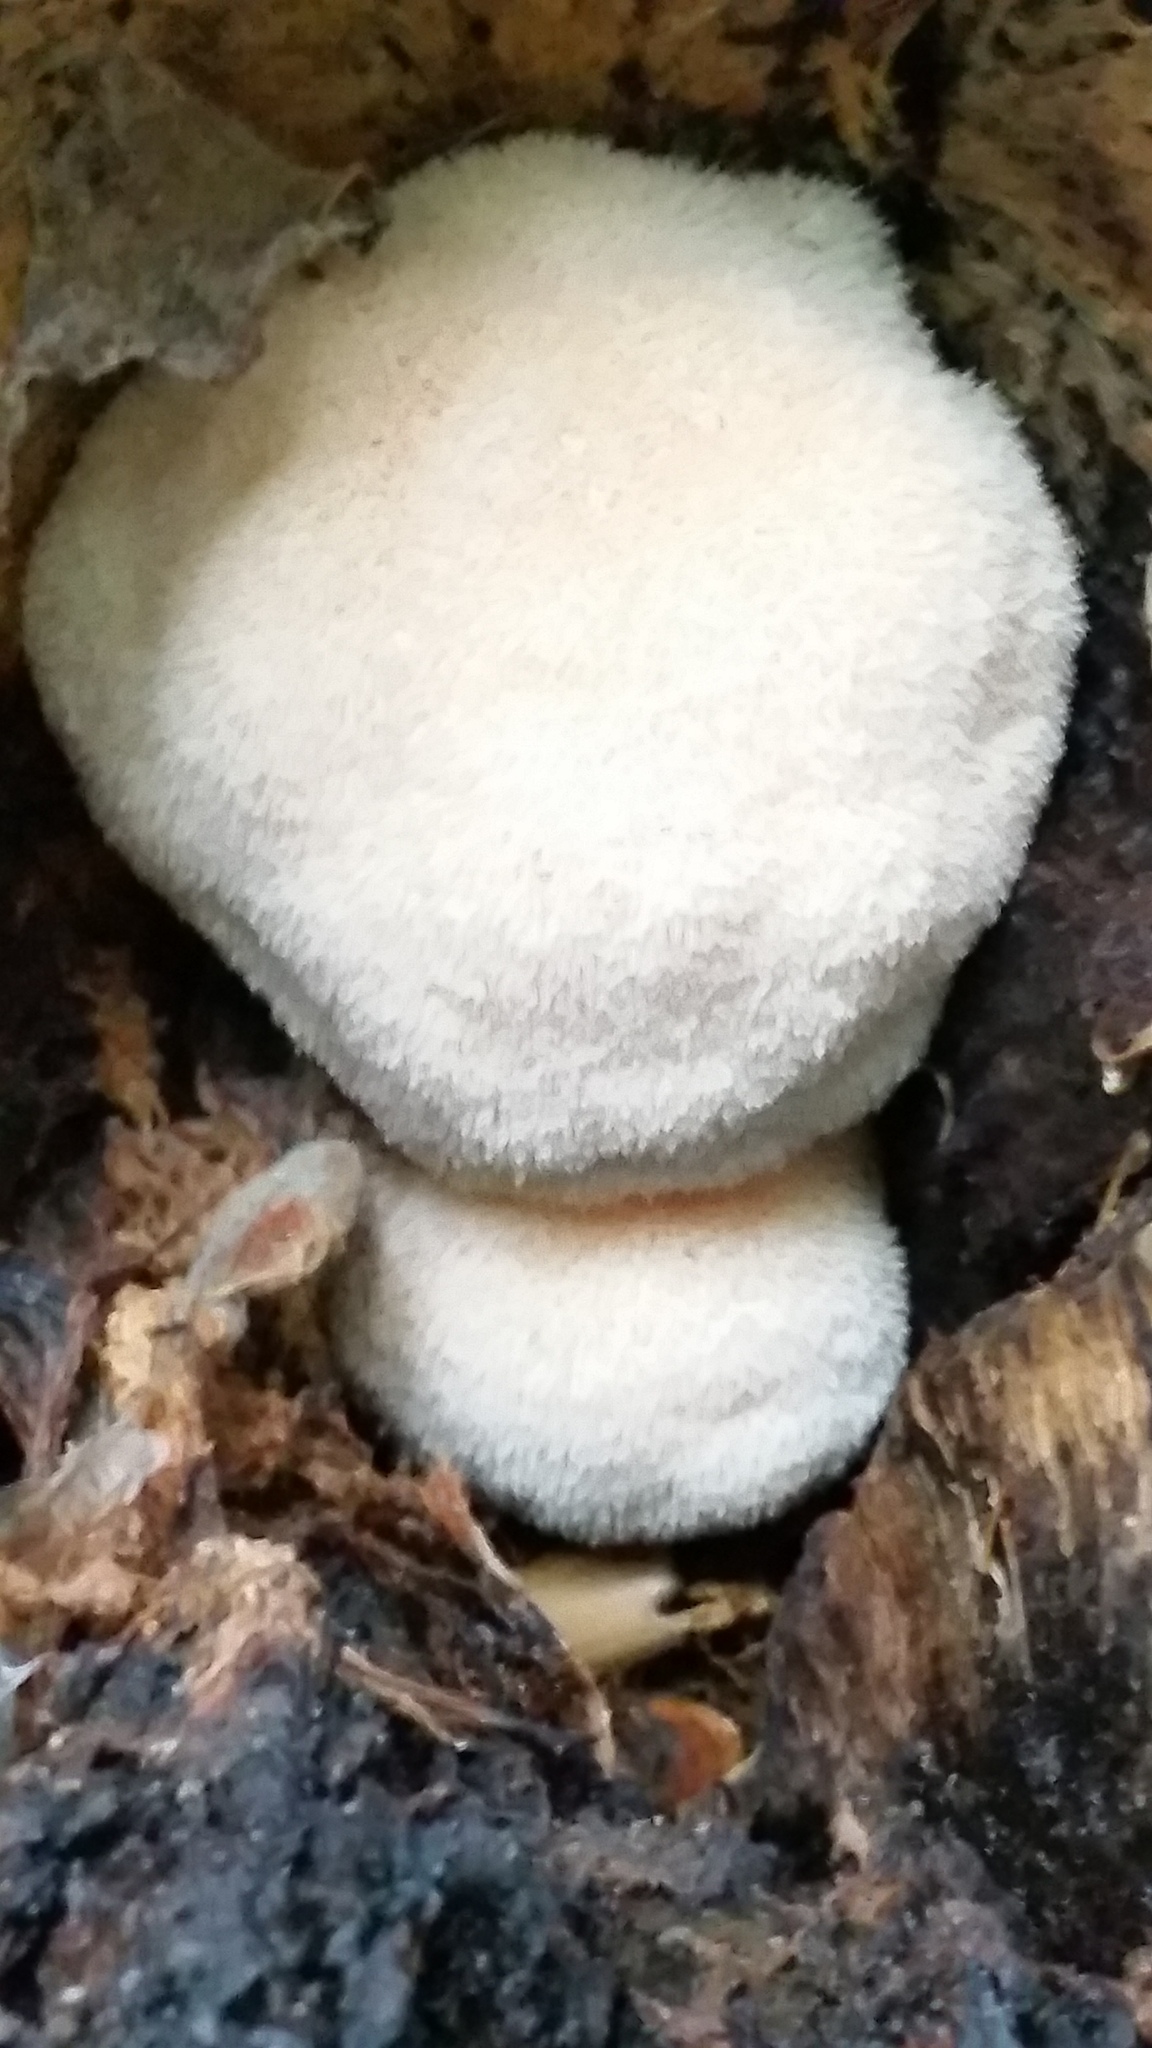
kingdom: Fungi
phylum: Basidiomycota
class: Agaricomycetes
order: Russulales
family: Hericiaceae
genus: Hericium
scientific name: Hericium erinaceus
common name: Bearded tooth
